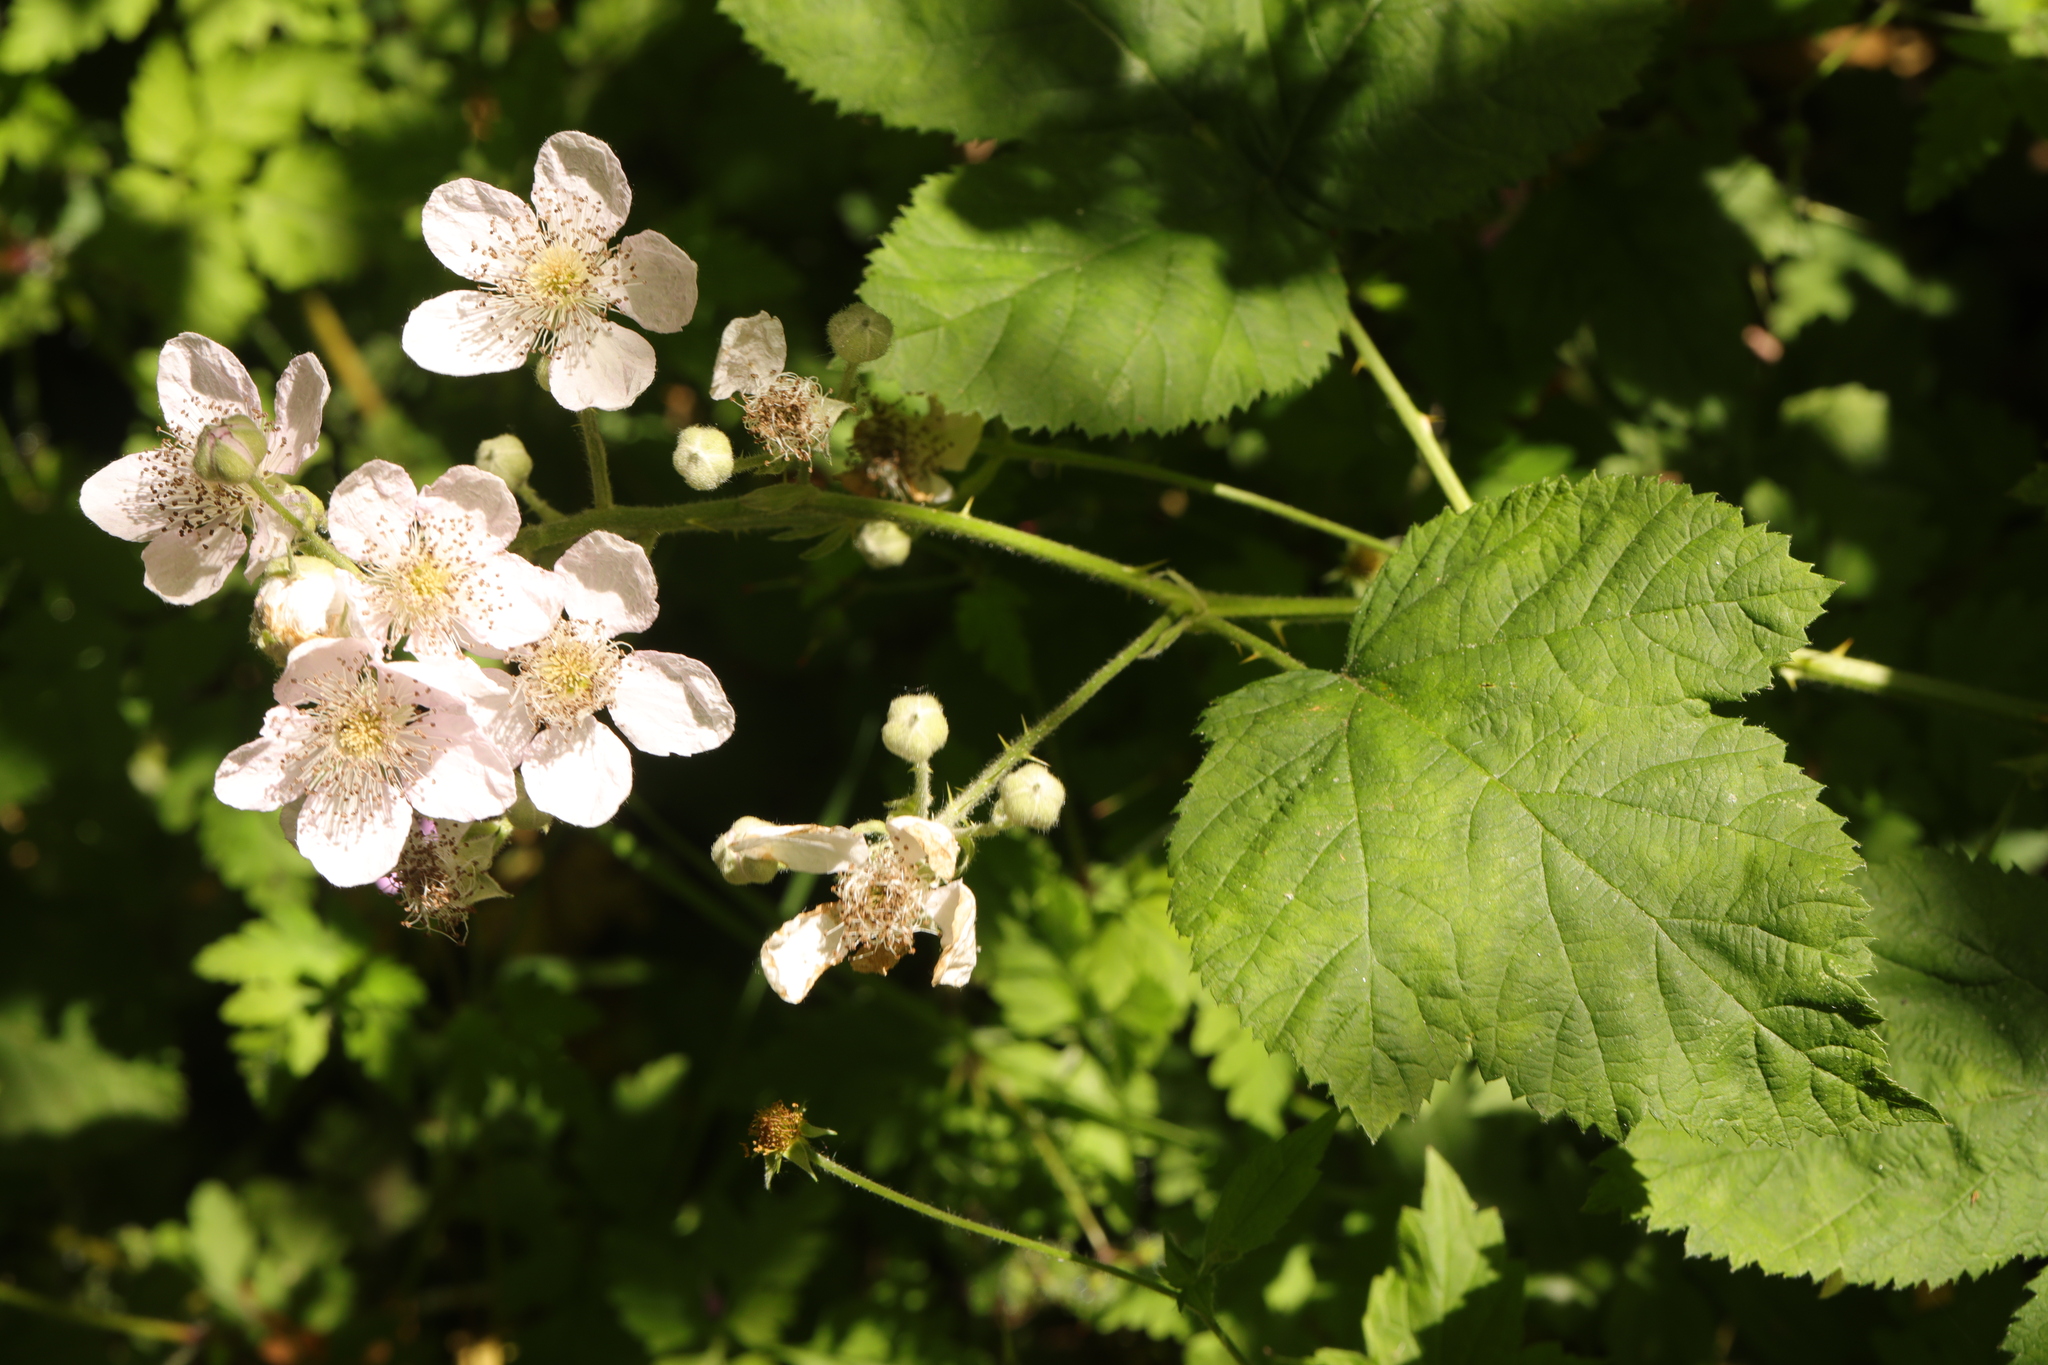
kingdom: Plantae
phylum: Tracheophyta
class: Magnoliopsida
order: Rosales
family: Rosaceae
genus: Rubus
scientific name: Rubus armeniacus
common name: Himalayan blackberry
